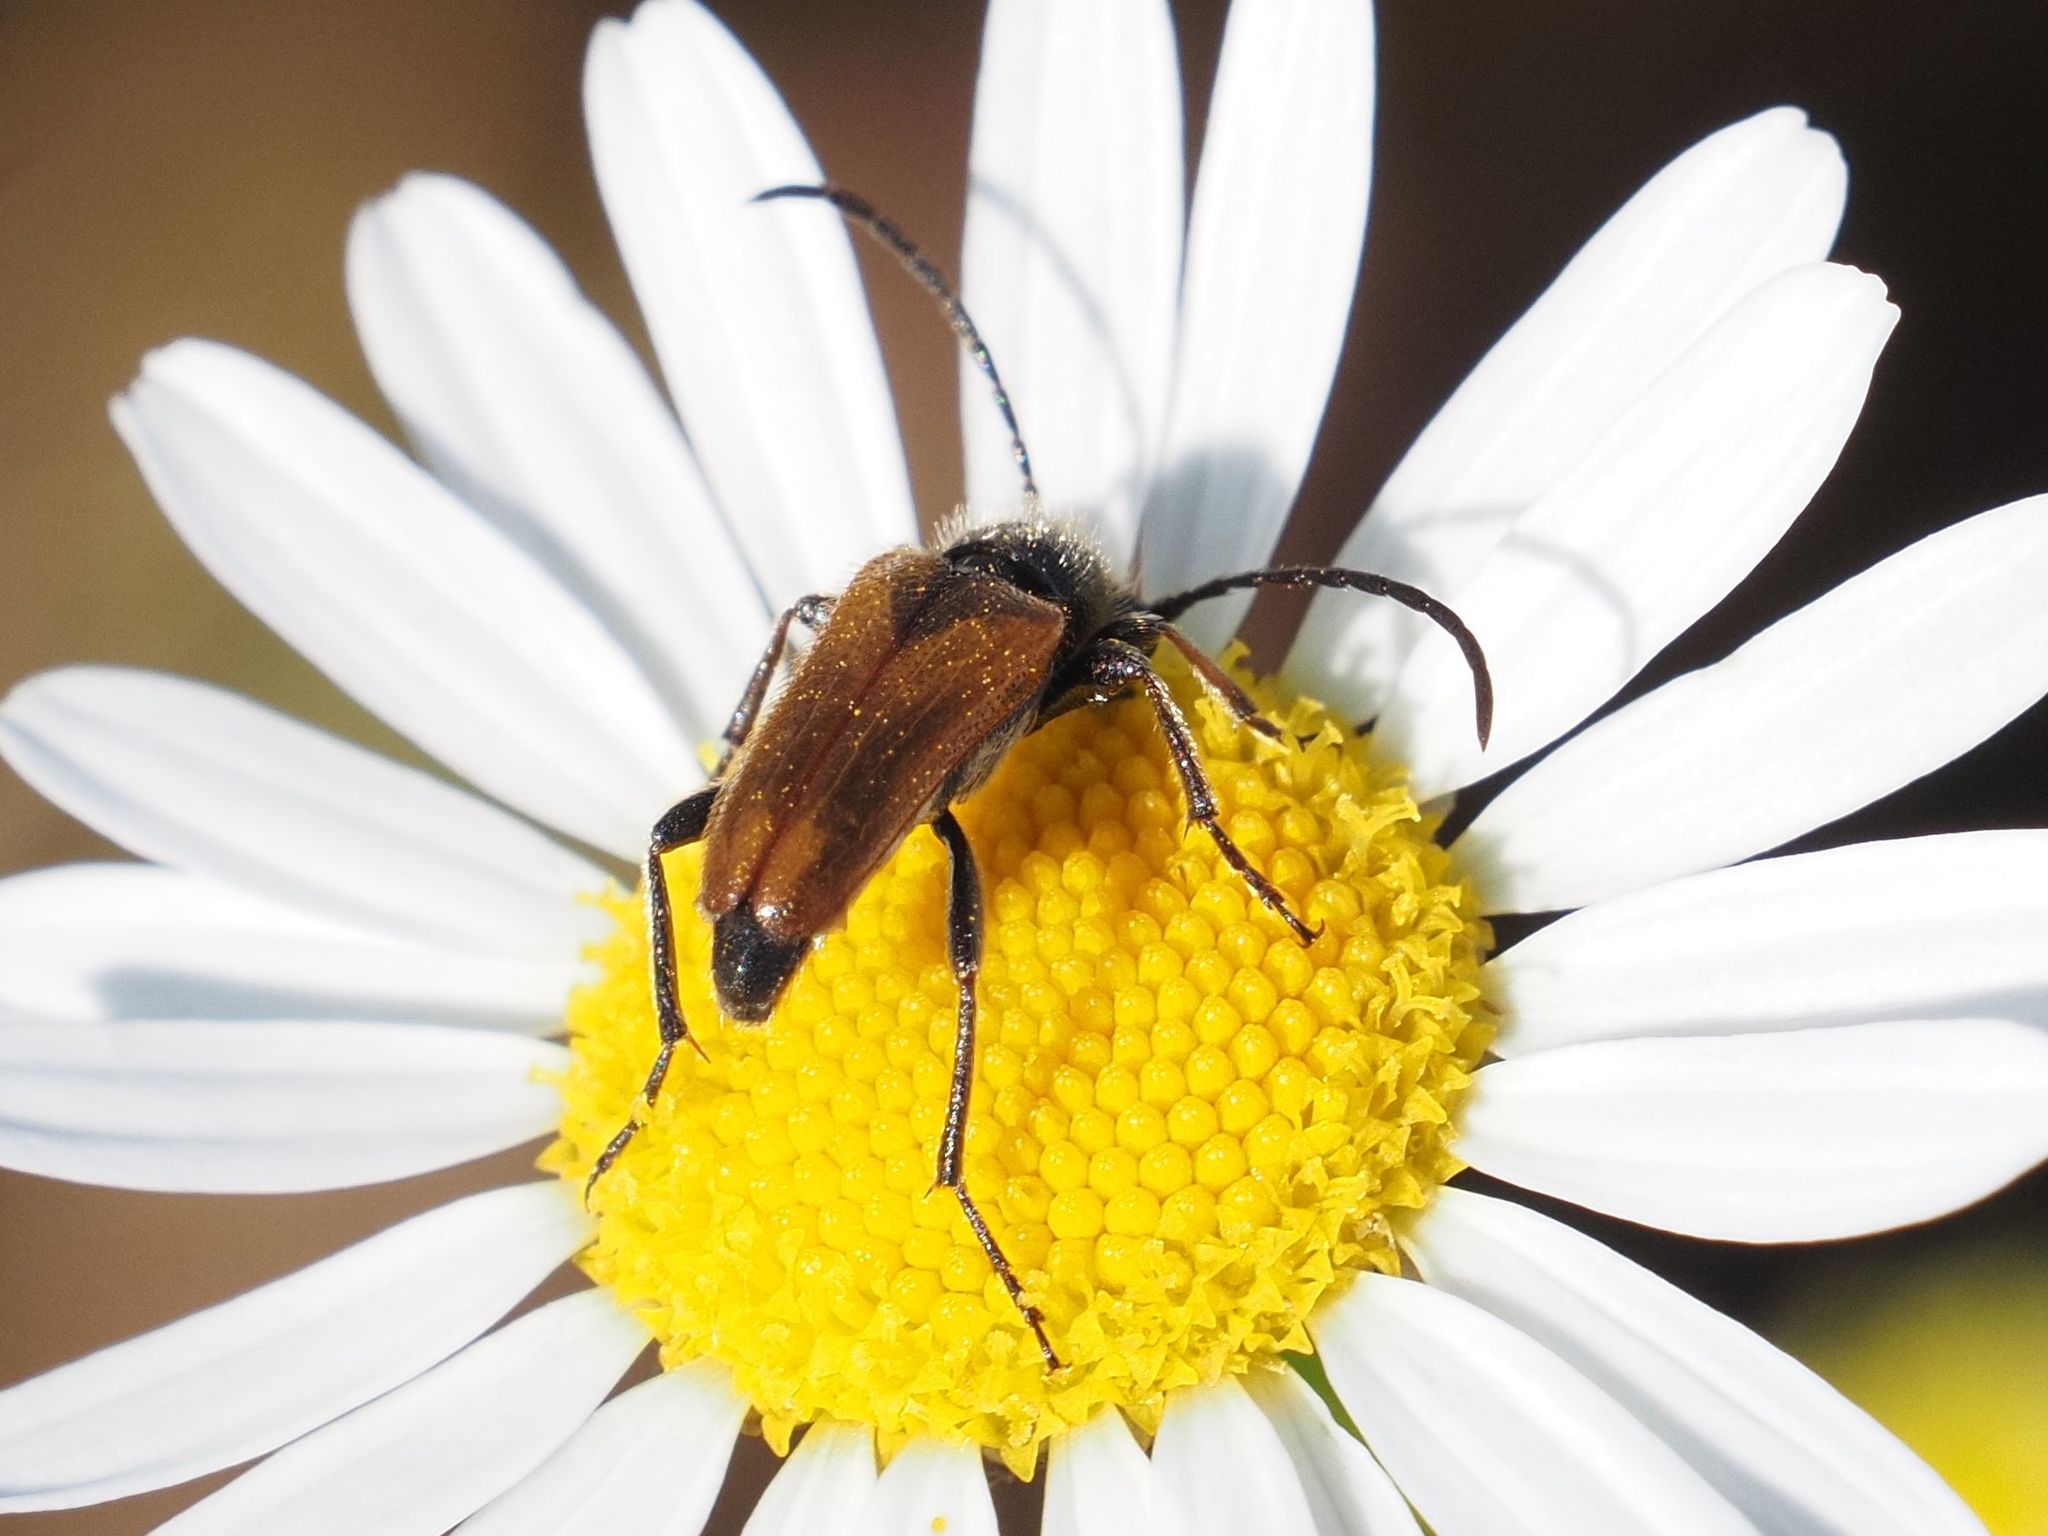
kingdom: Animalia
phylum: Arthropoda
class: Insecta
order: Coleoptera
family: Cerambycidae
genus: Pseudovadonia
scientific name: Pseudovadonia livida
